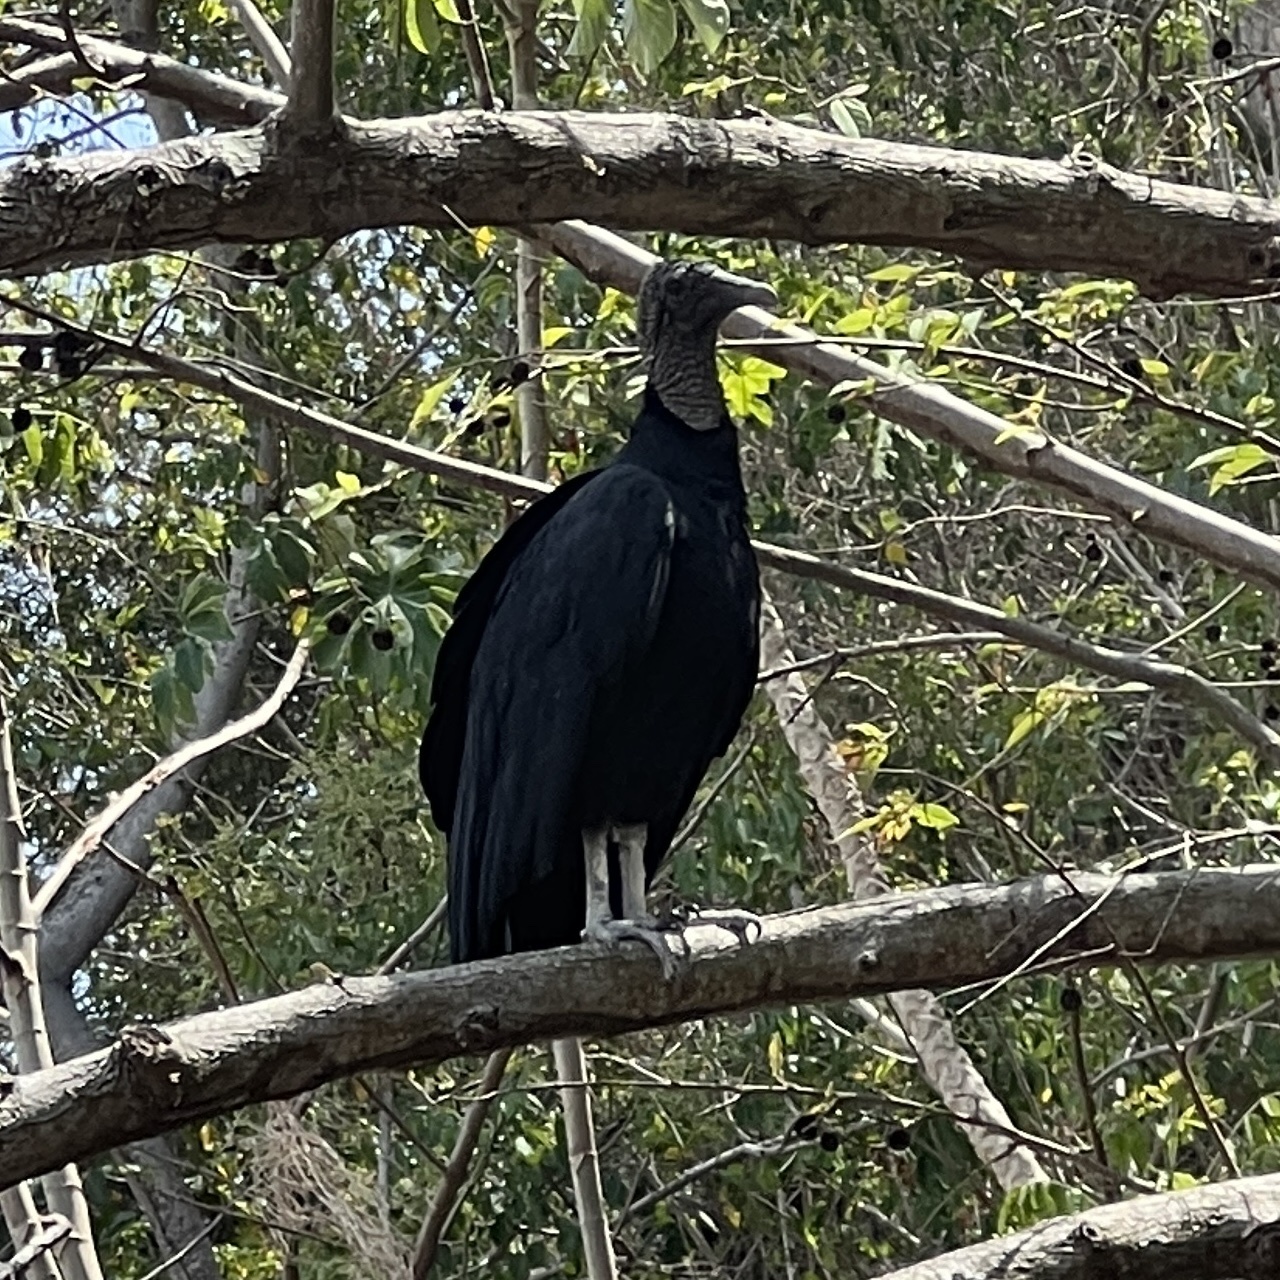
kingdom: Animalia
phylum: Chordata
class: Aves
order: Accipitriformes
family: Cathartidae
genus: Coragyps
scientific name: Coragyps atratus
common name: Black vulture
